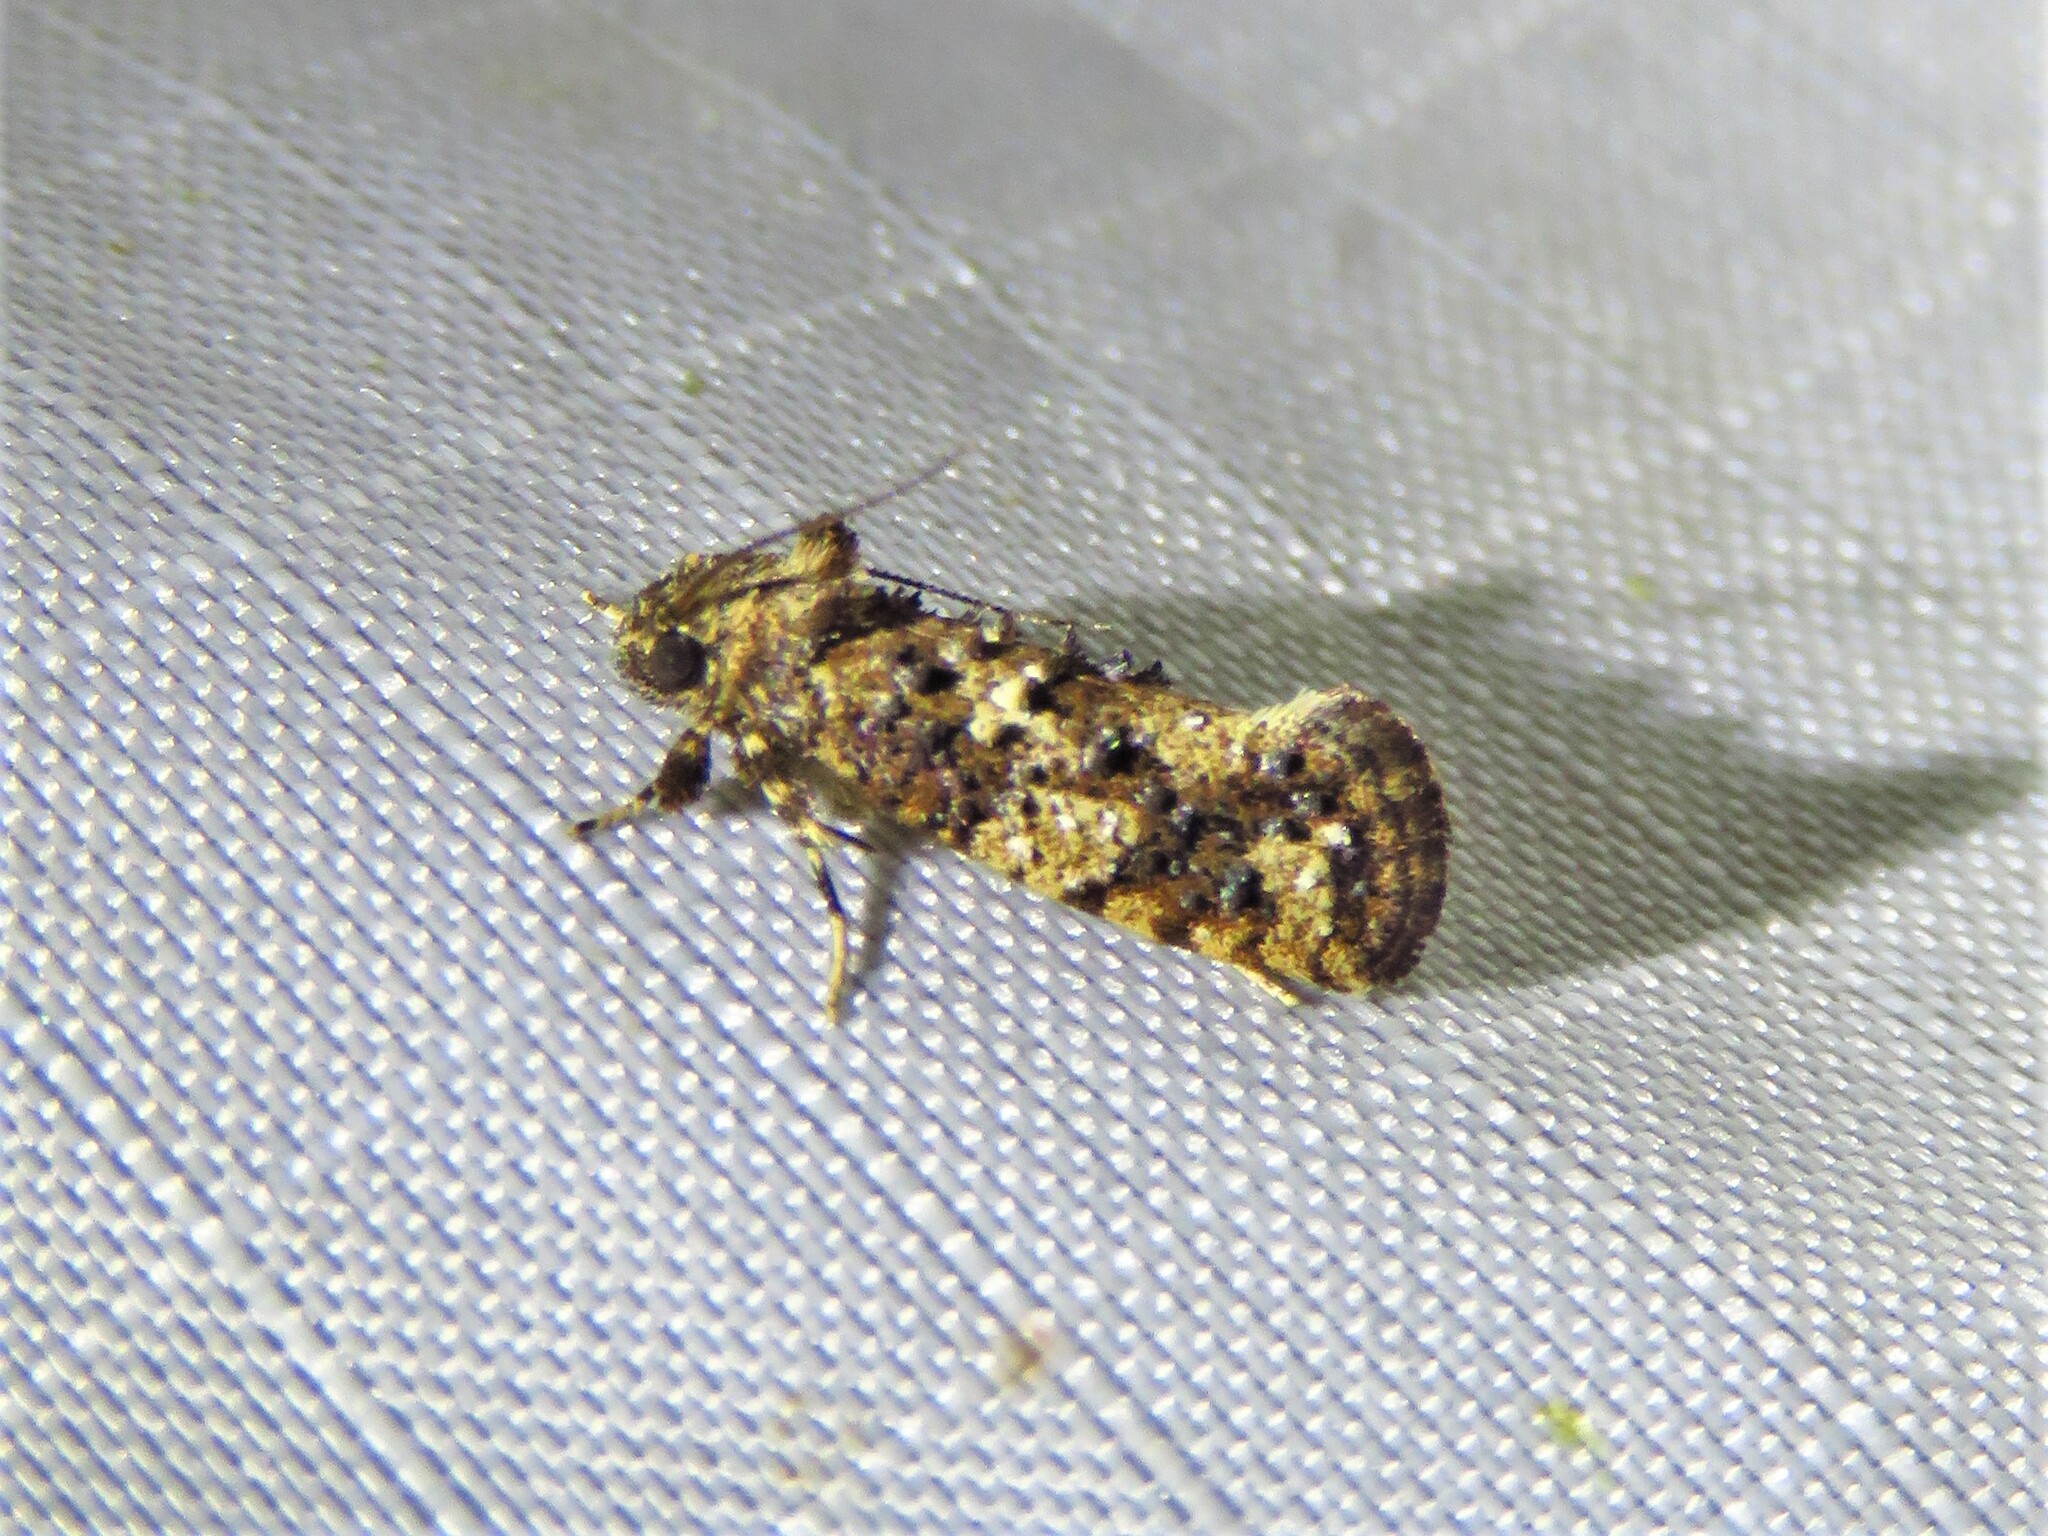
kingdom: Animalia
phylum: Arthropoda
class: Insecta
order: Lepidoptera
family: Tineidae
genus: Acrolophus
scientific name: Acrolophus cressoni
